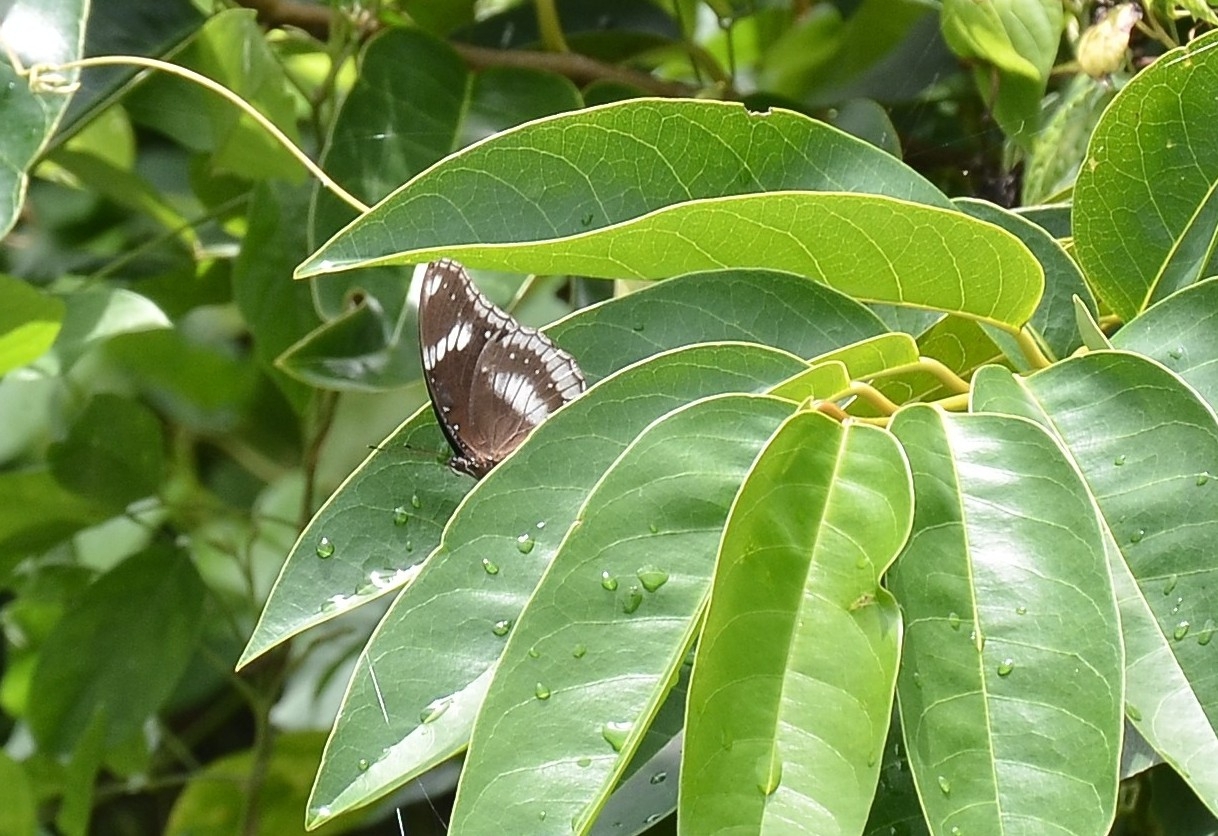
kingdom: Animalia
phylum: Arthropoda
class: Insecta
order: Lepidoptera
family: Nymphalidae
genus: Hypolimnas
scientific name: Hypolimnas bolina
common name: Great eggfly
